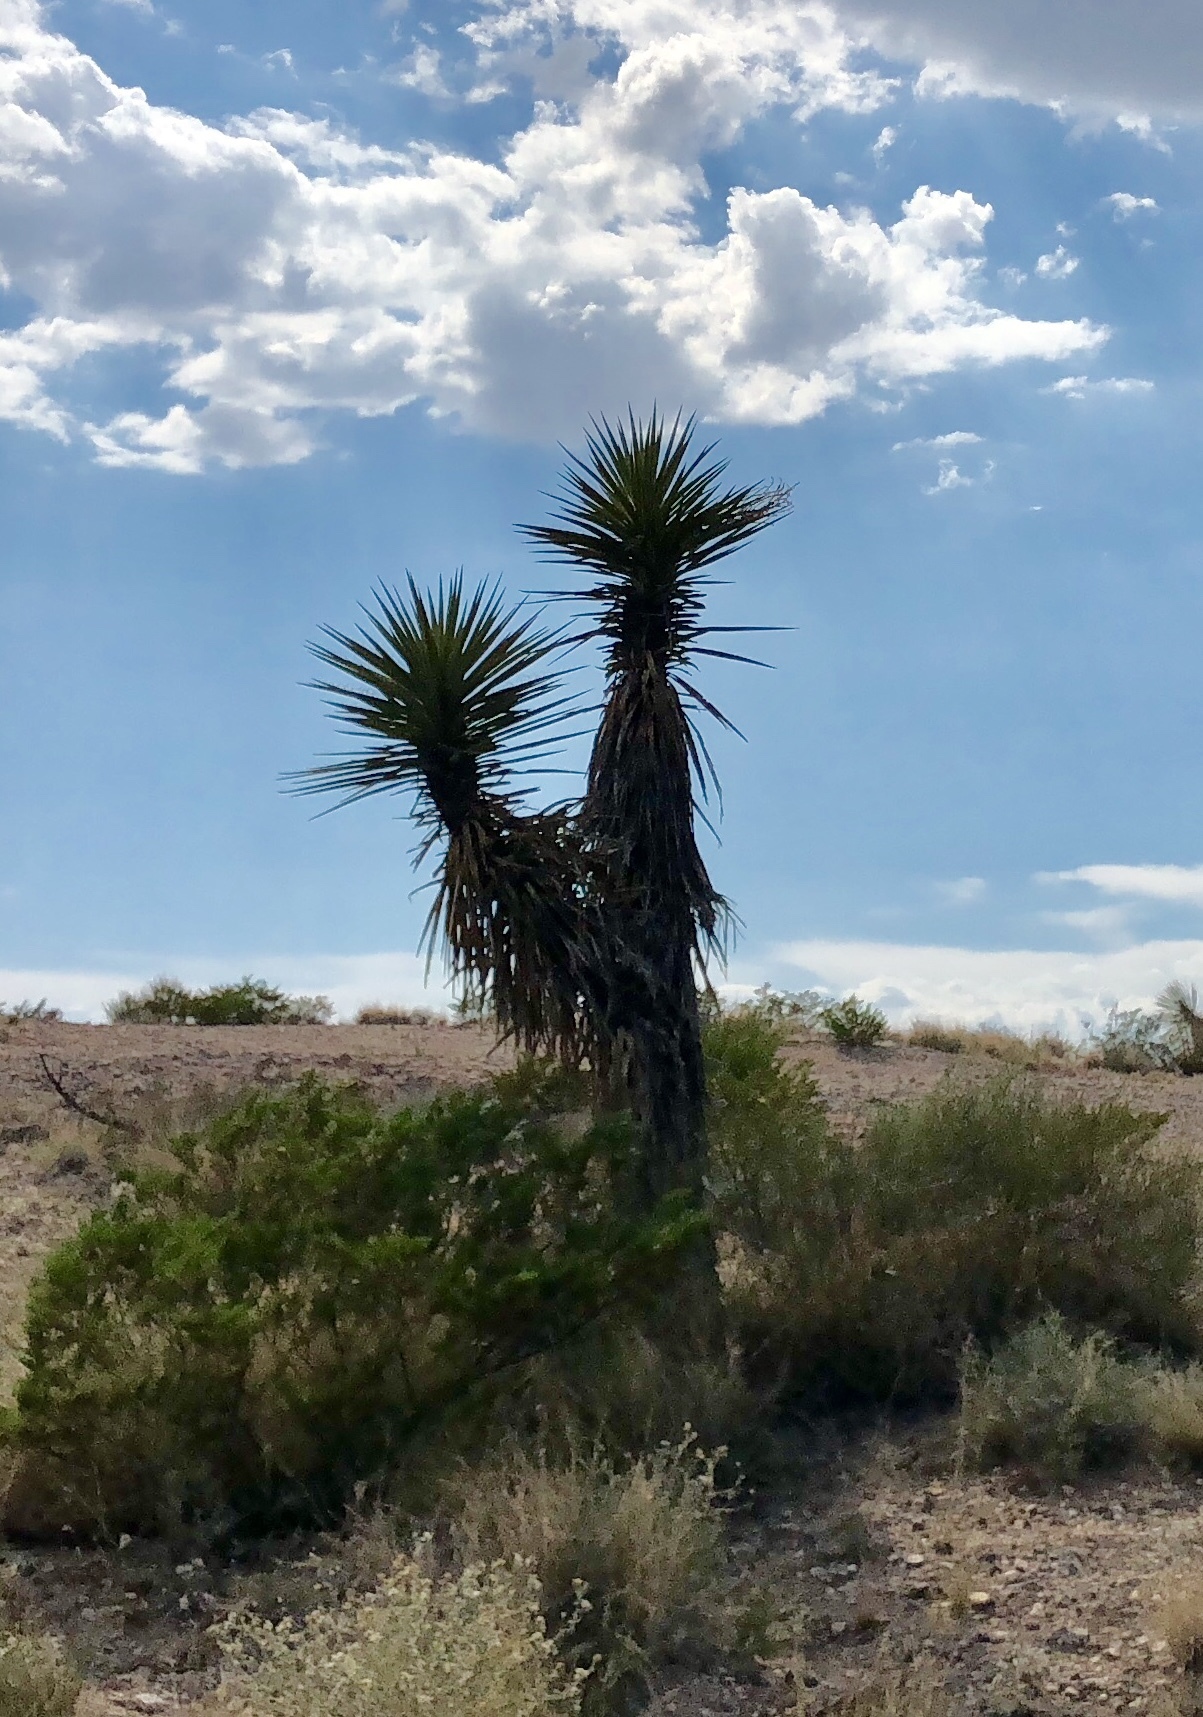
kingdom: Plantae
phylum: Tracheophyta
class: Liliopsida
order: Asparagales
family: Asparagaceae
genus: Yucca
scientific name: Yucca treculiana
